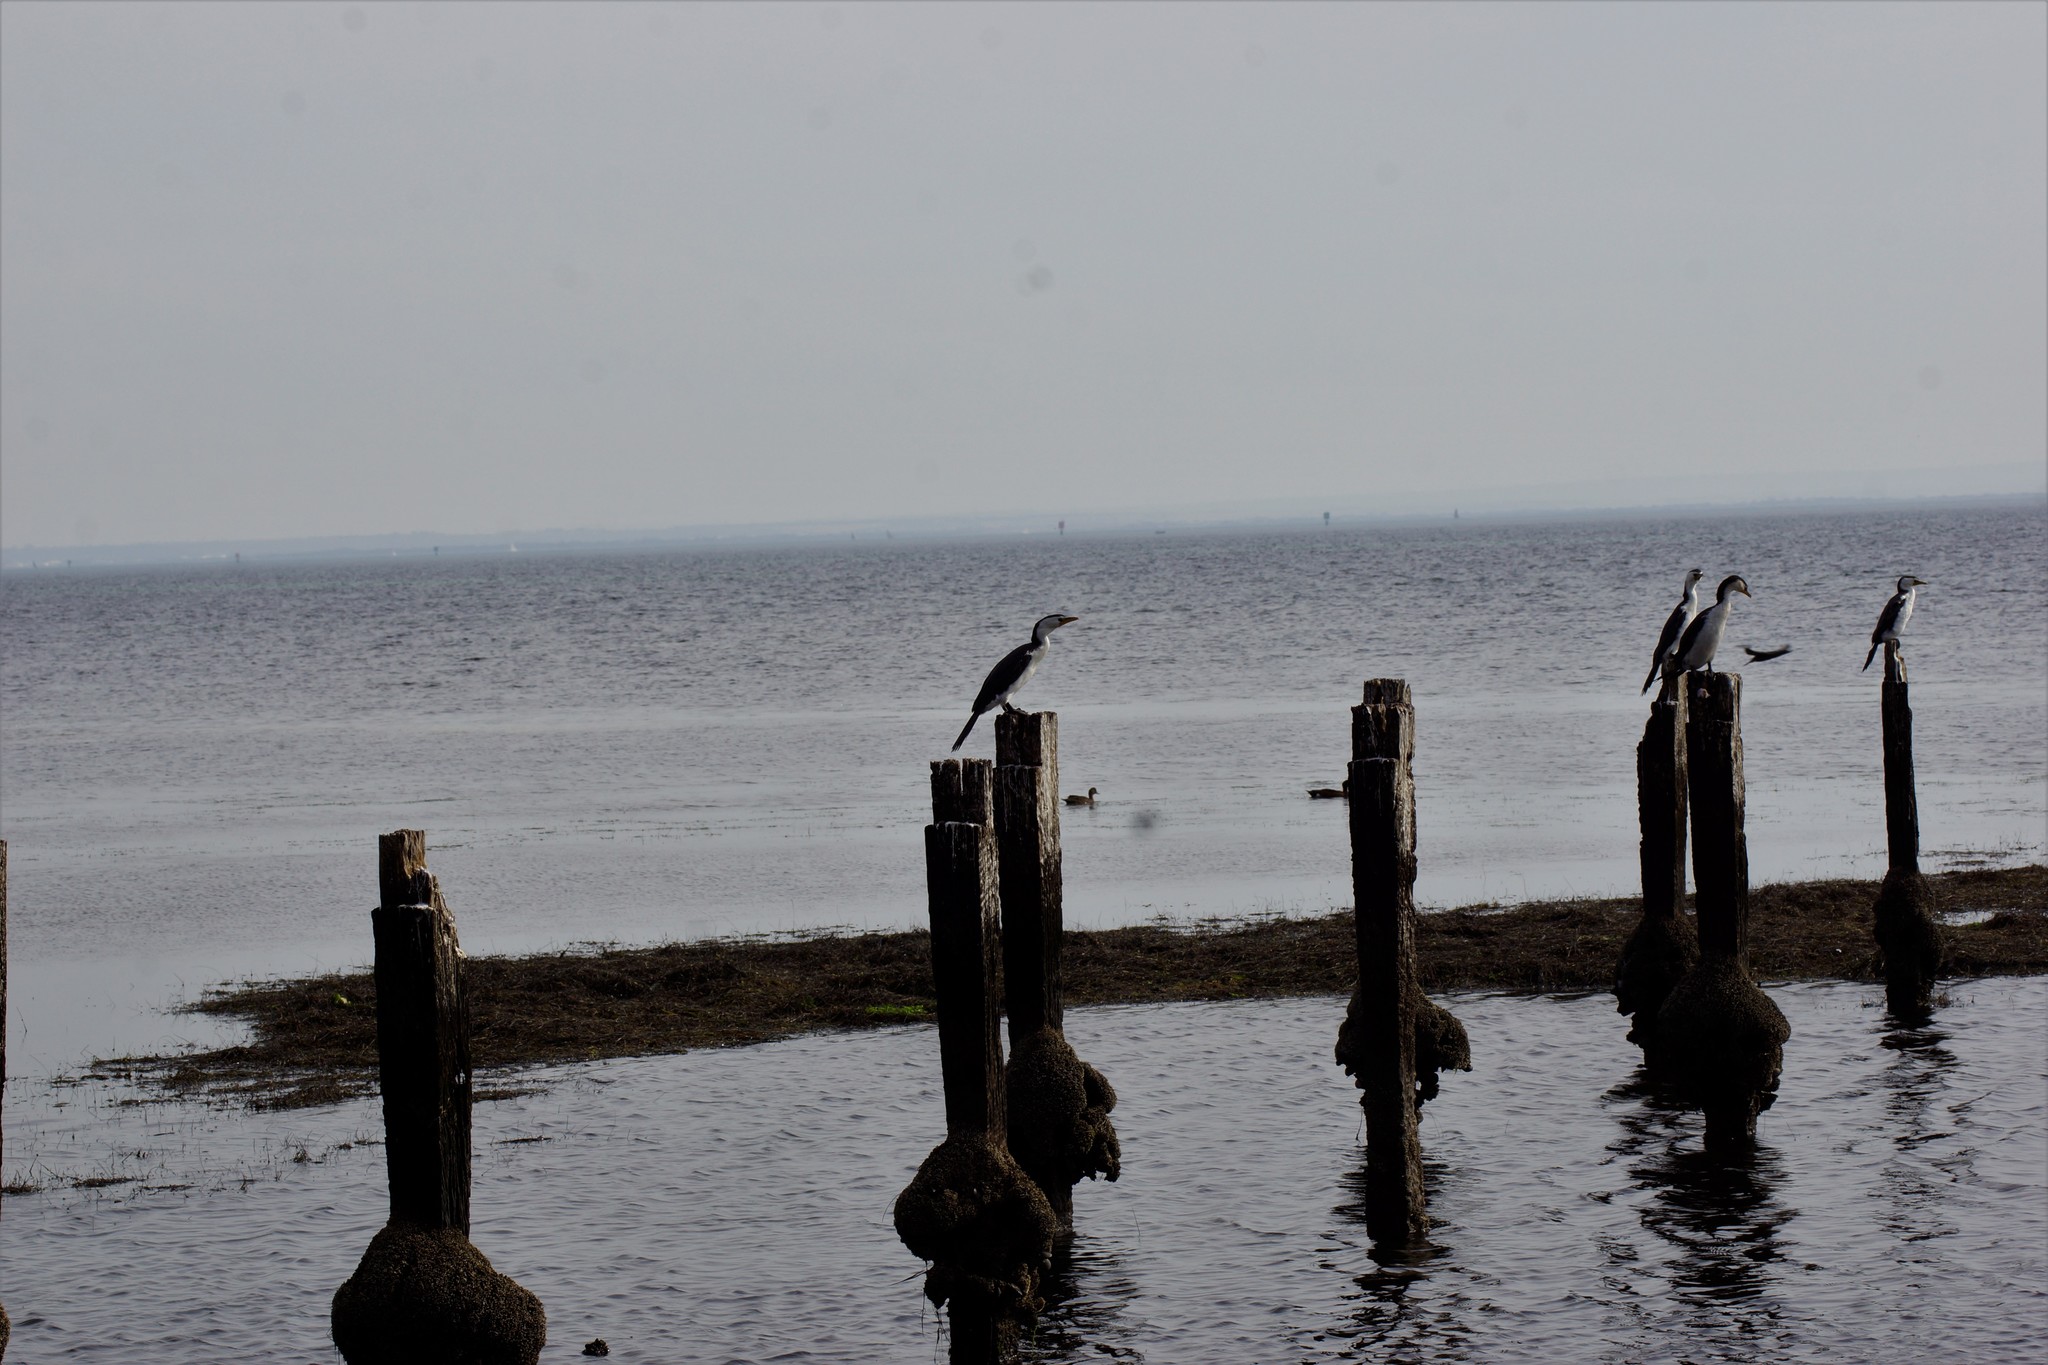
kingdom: Animalia
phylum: Chordata
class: Aves
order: Suliformes
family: Phalacrocoracidae
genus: Microcarbo
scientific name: Microcarbo melanoleucos
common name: Little pied cormorant
